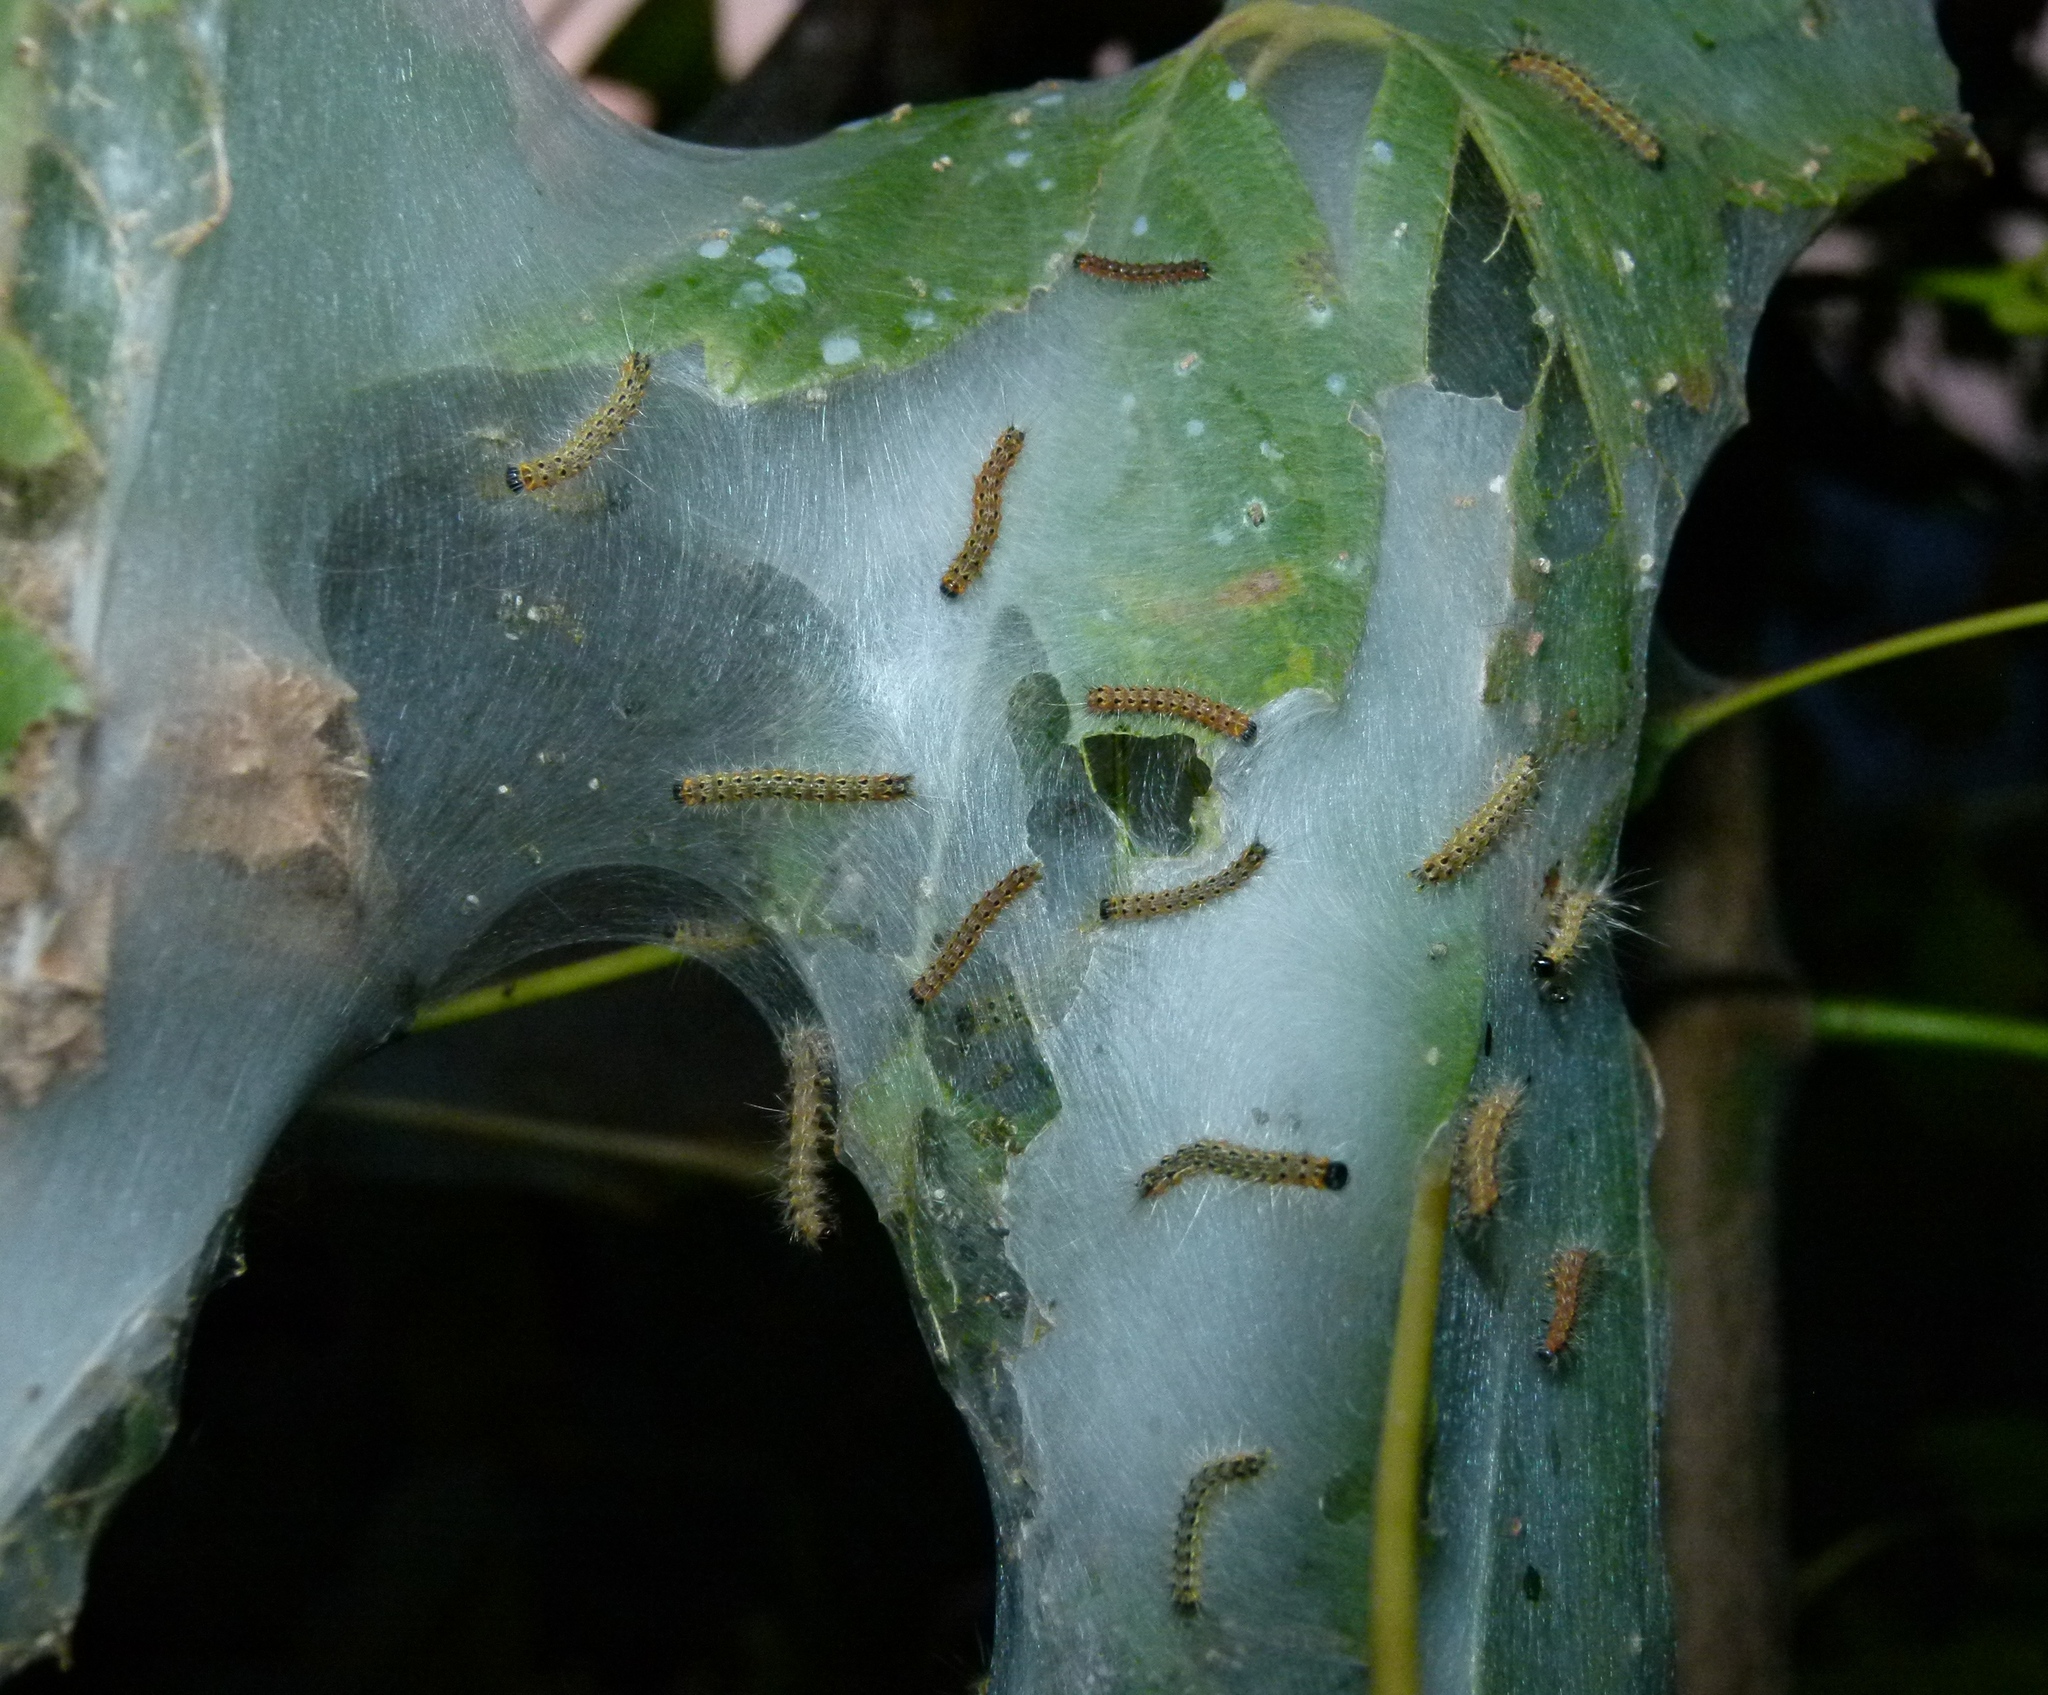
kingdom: Animalia
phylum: Arthropoda
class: Insecta
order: Lepidoptera
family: Erebidae
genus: Hyphantria
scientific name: Hyphantria cunea
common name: American white moth
